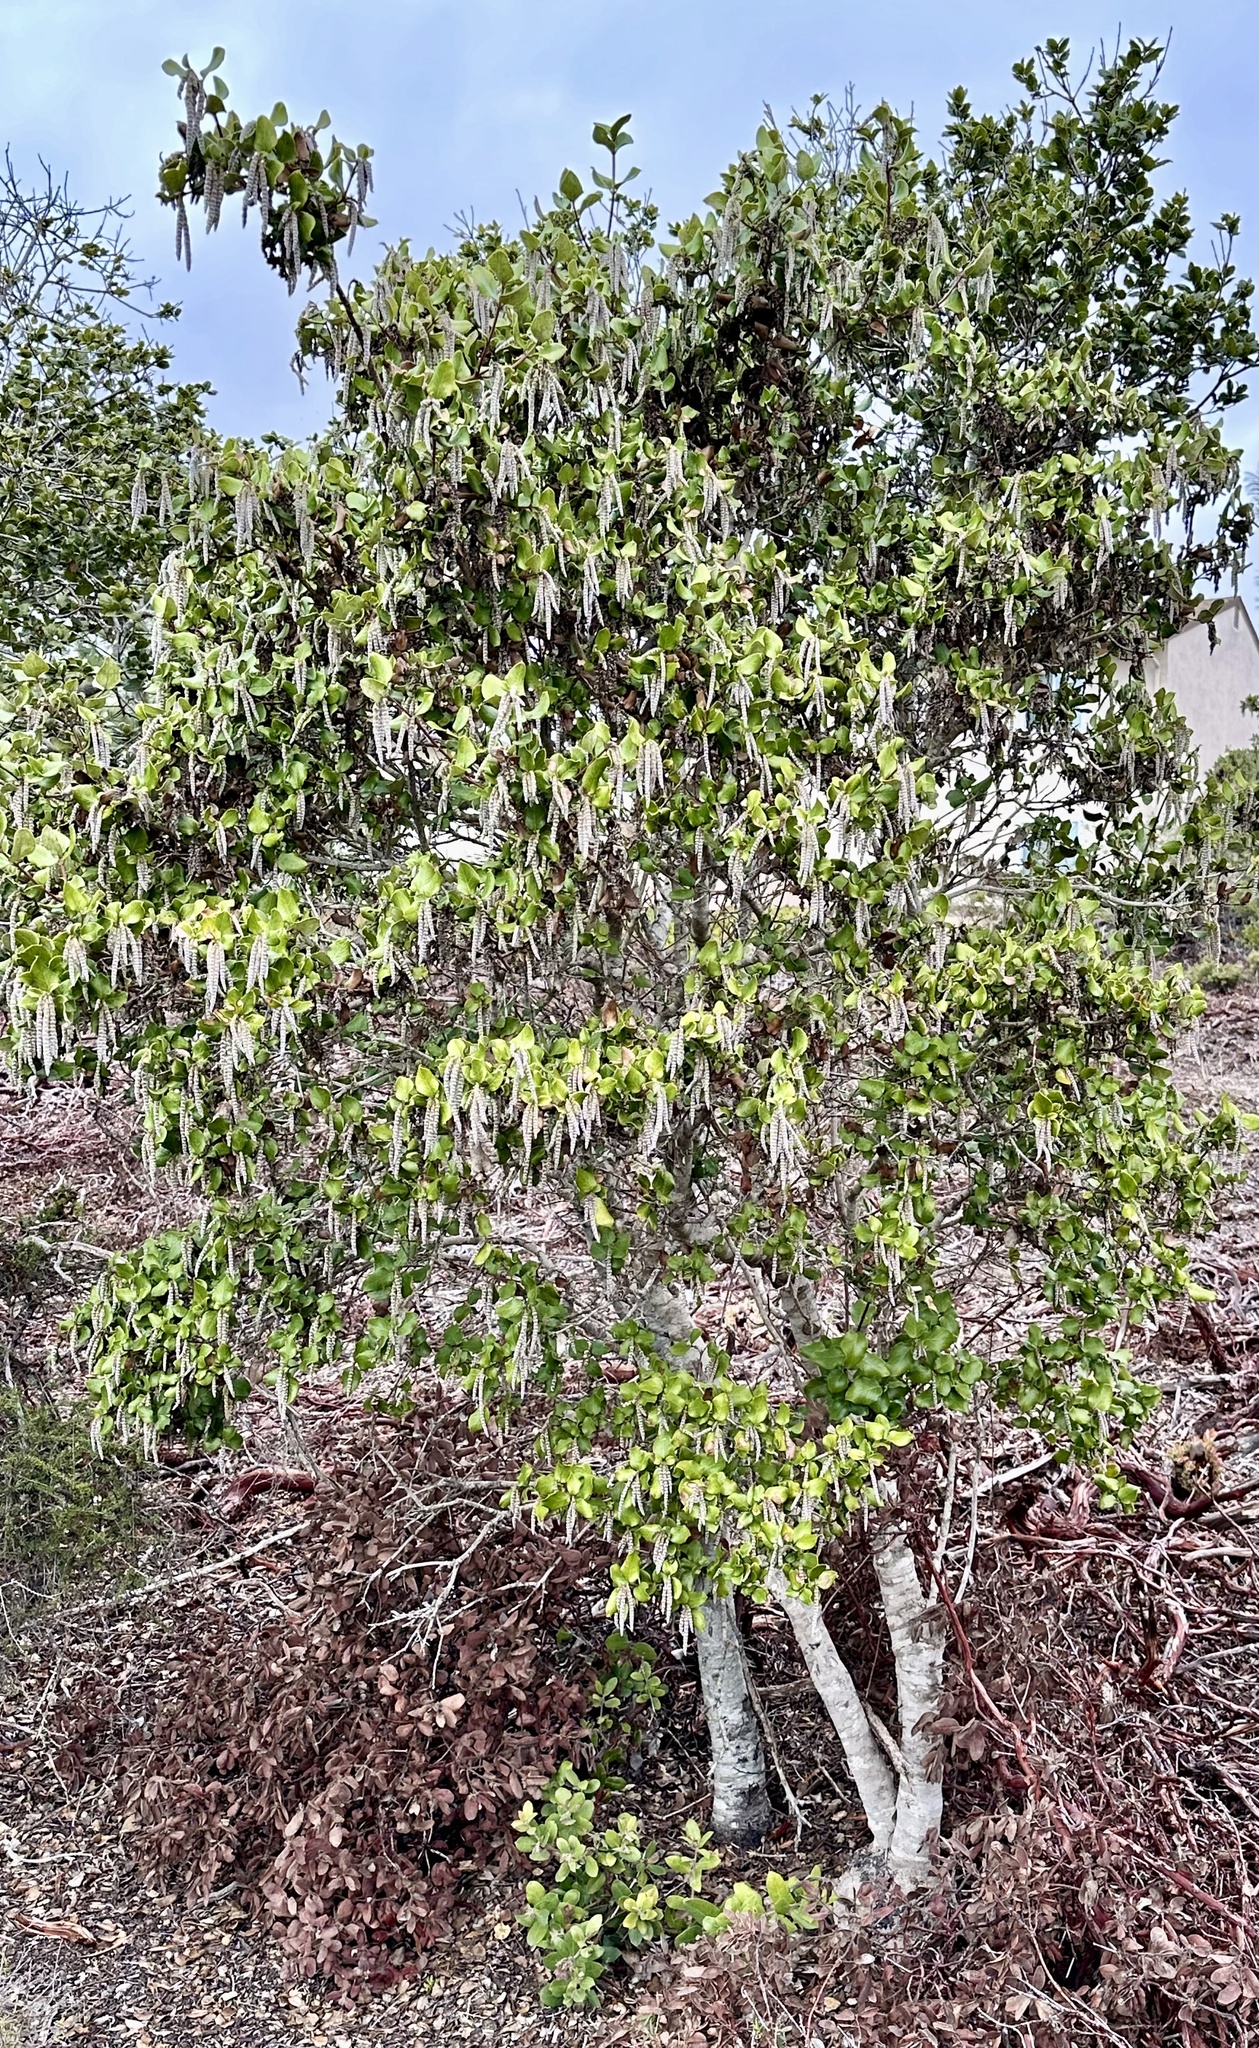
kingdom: Plantae
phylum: Tracheophyta
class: Magnoliopsida
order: Garryales
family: Garryaceae
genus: Garrya
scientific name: Garrya elliptica
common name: Silk-tassel
